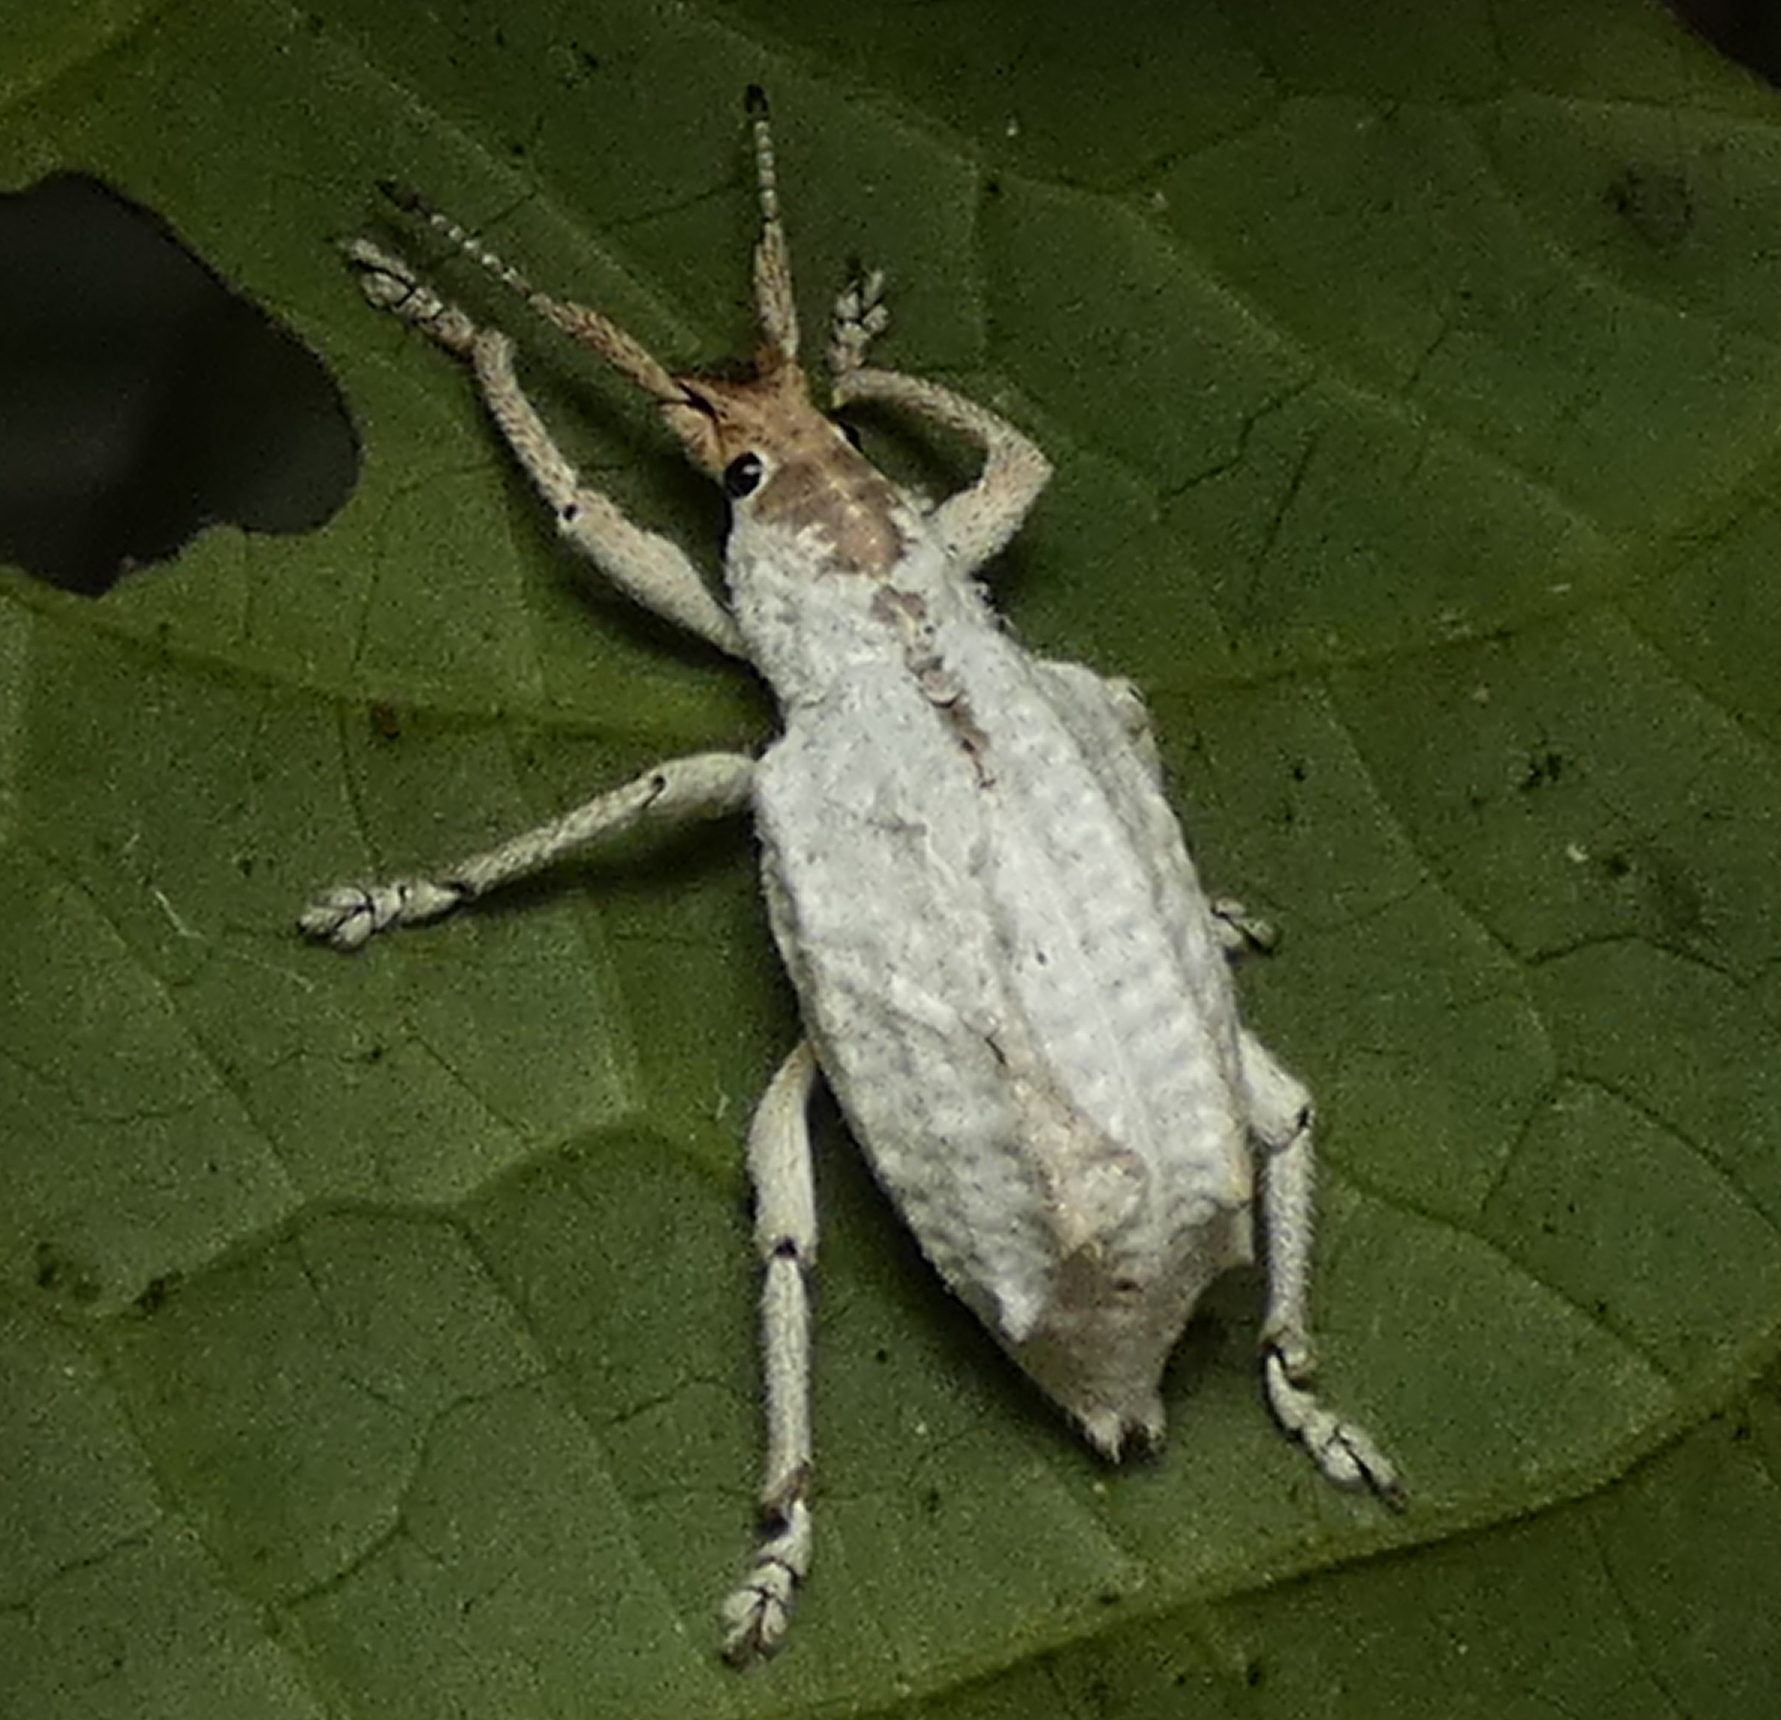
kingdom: Animalia
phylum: Arthropoda
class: Insecta
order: Coleoptera
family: Curculionidae
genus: Compsus
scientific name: Compsus niveus
